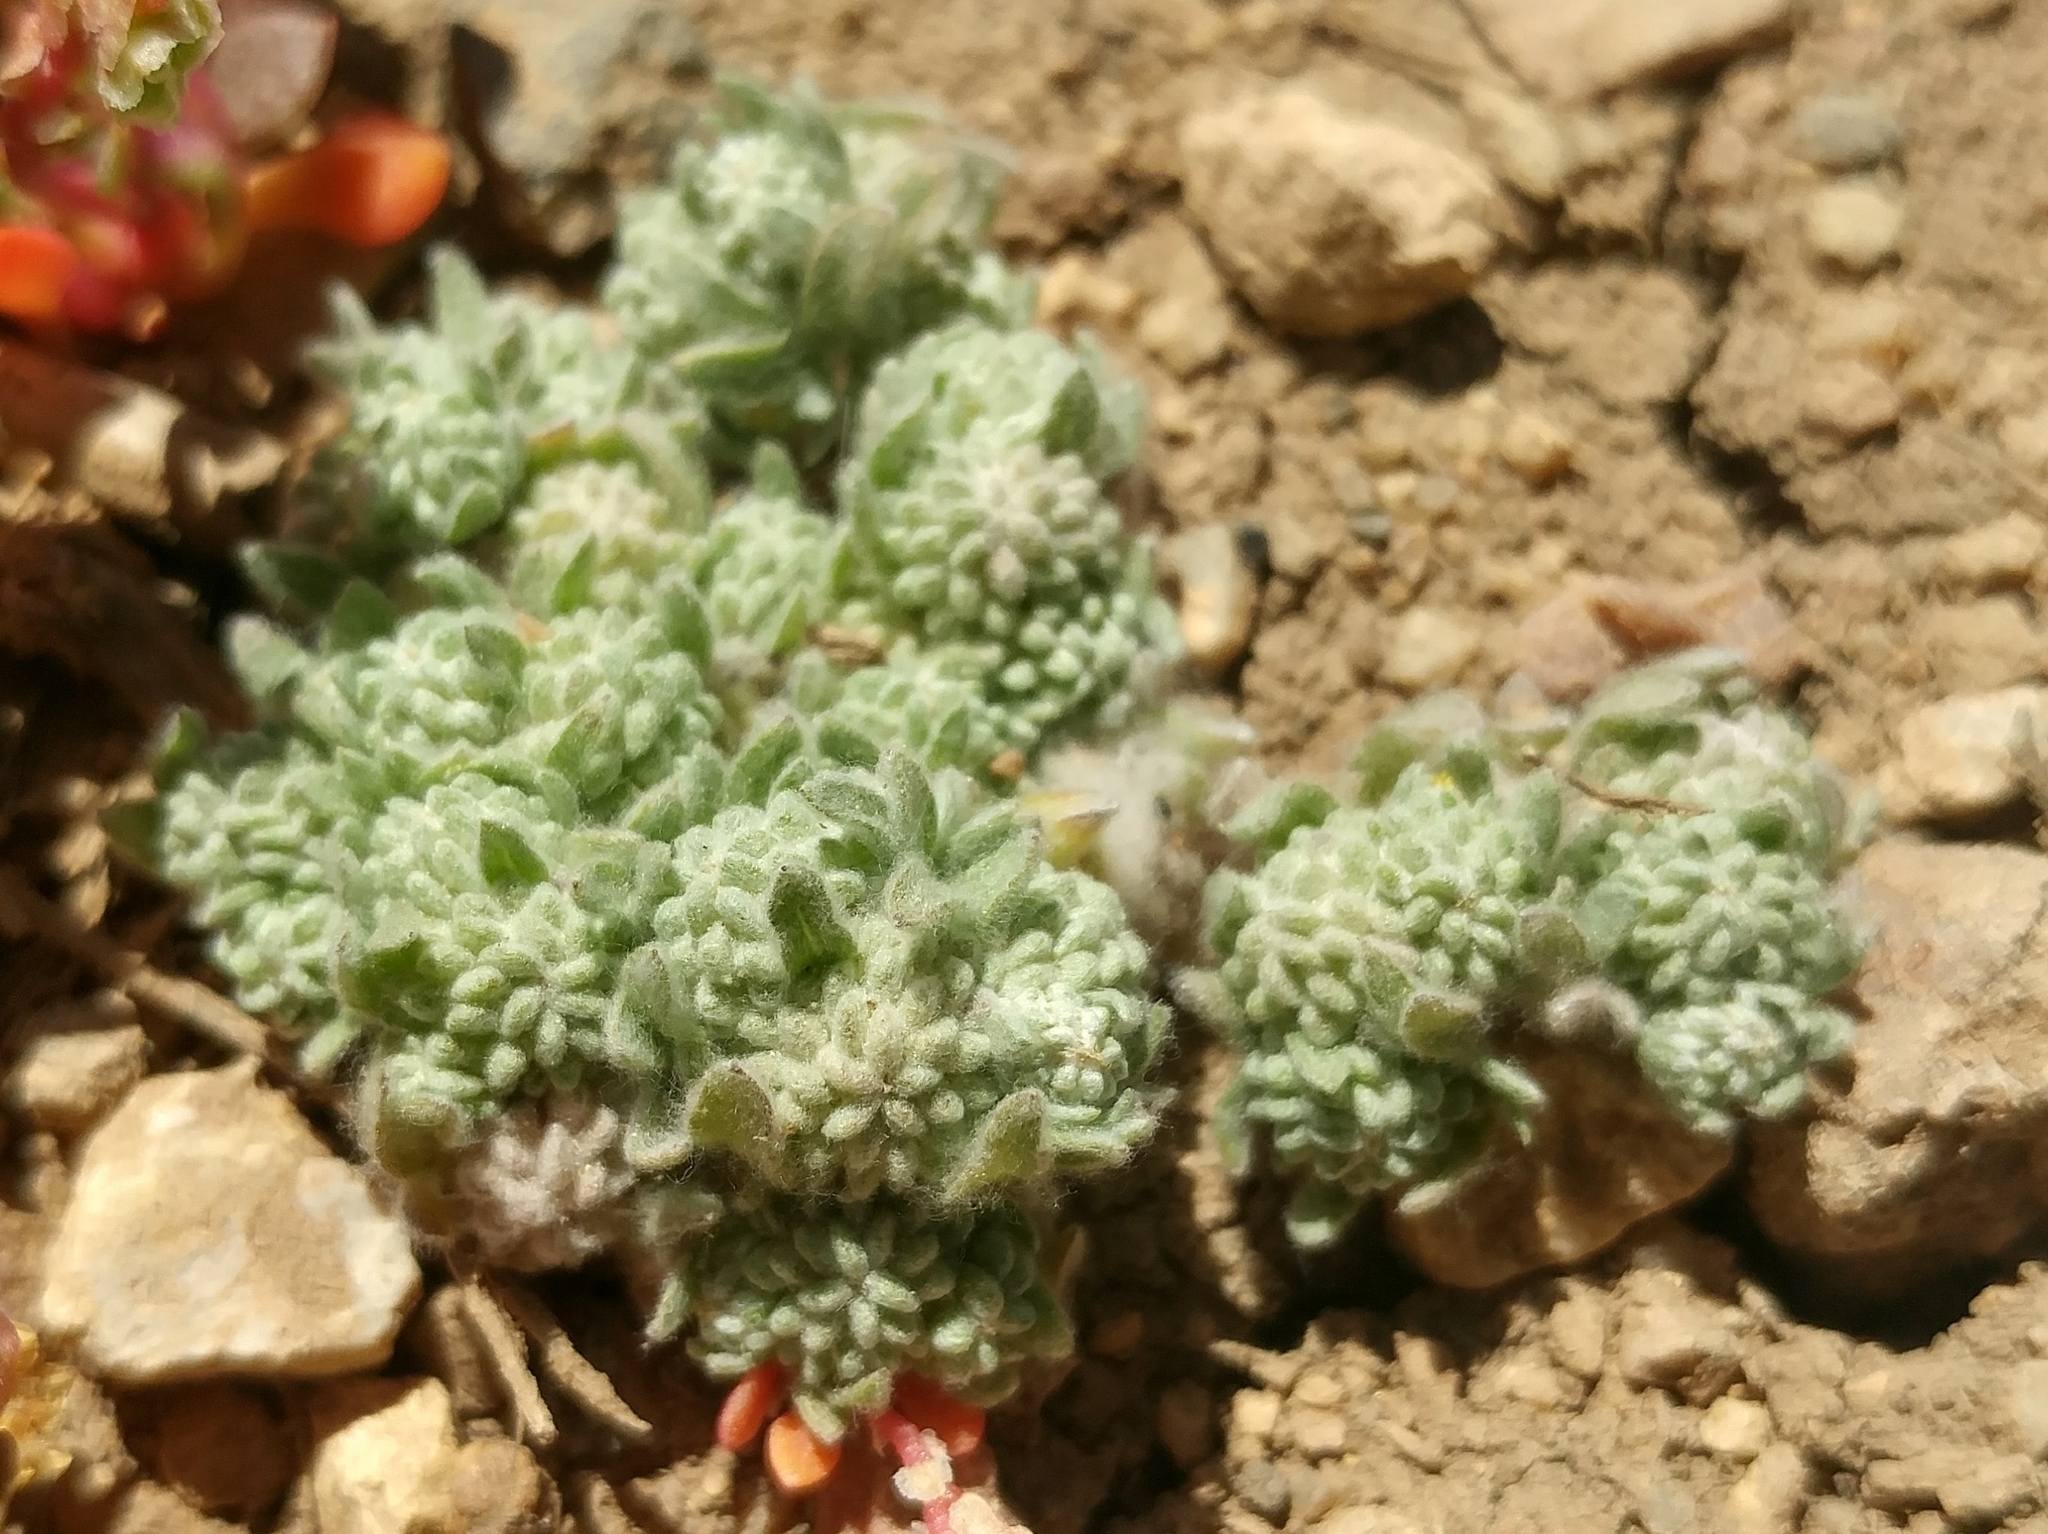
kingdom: Plantae
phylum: Tracheophyta
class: Magnoliopsida
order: Asterales
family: Asteraceae
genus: Psilocarphus
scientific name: Psilocarphus tenellus
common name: Slender woolly-marbles
